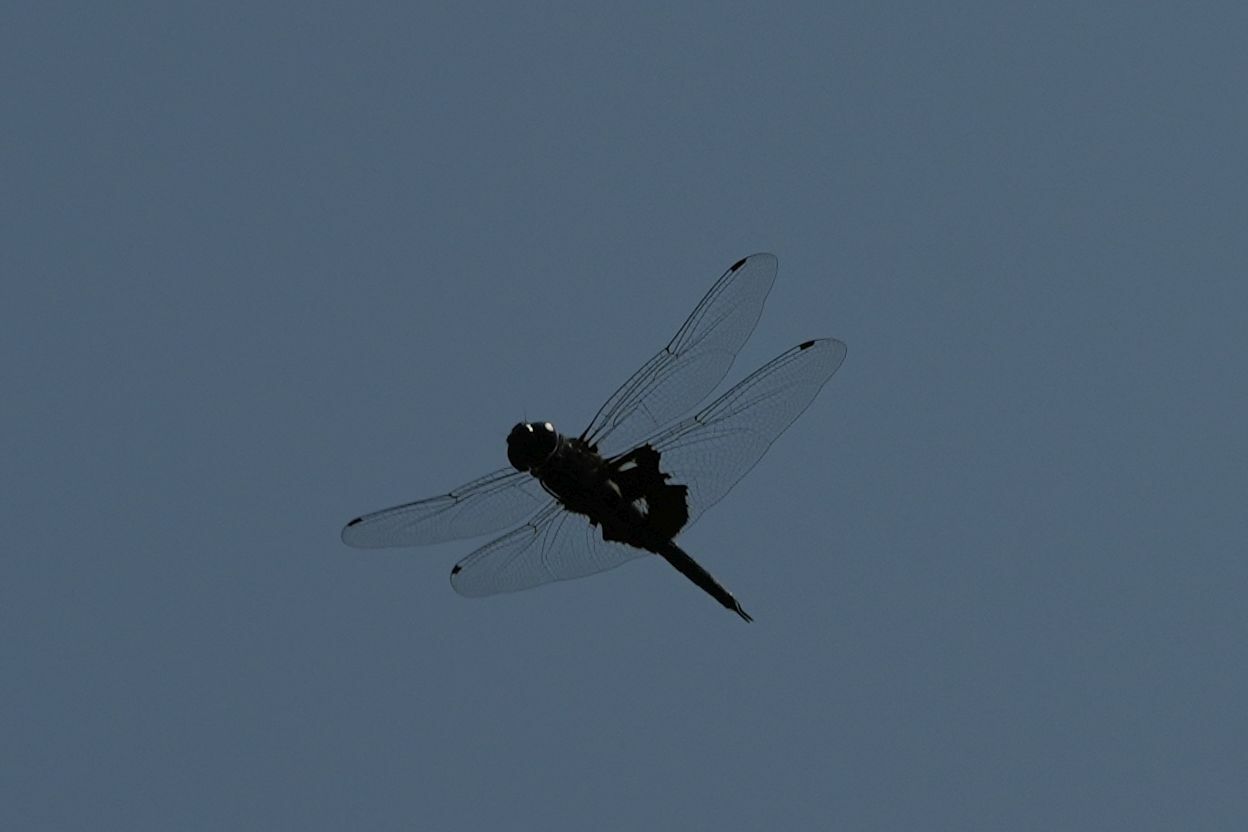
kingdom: Animalia
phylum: Arthropoda
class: Insecta
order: Odonata
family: Libellulidae
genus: Tramea
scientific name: Tramea lacerata
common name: Black saddlebags
